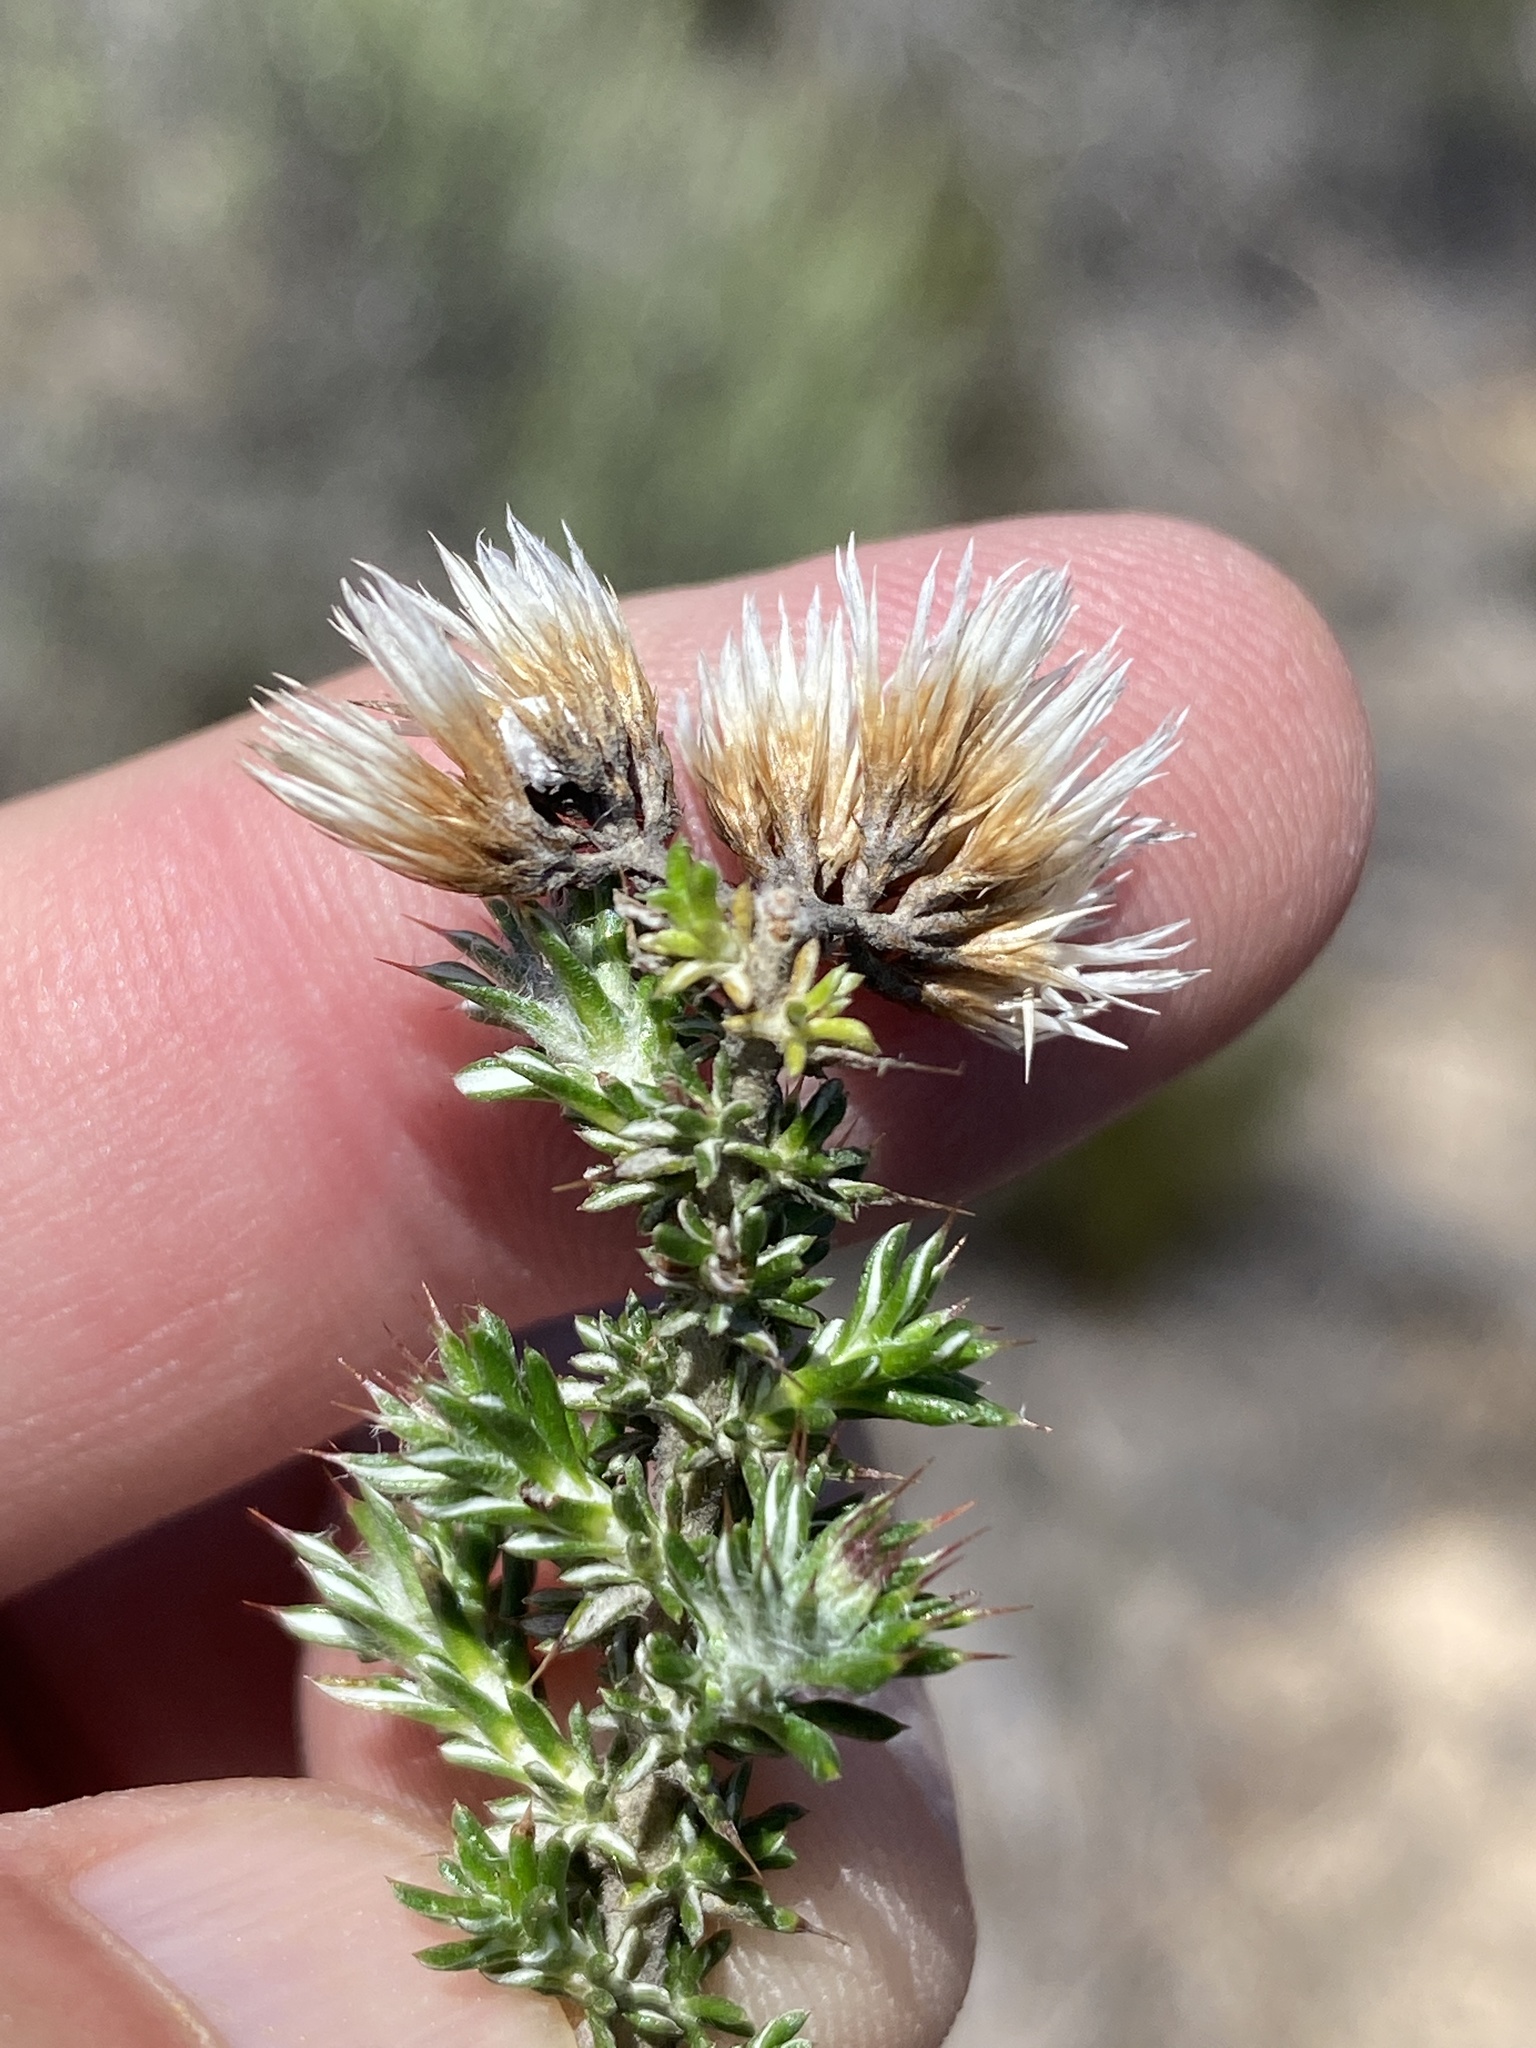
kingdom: Plantae
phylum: Tracheophyta
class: Magnoliopsida
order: Asterales
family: Asteraceae
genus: Metalasia
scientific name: Metalasia acuta
